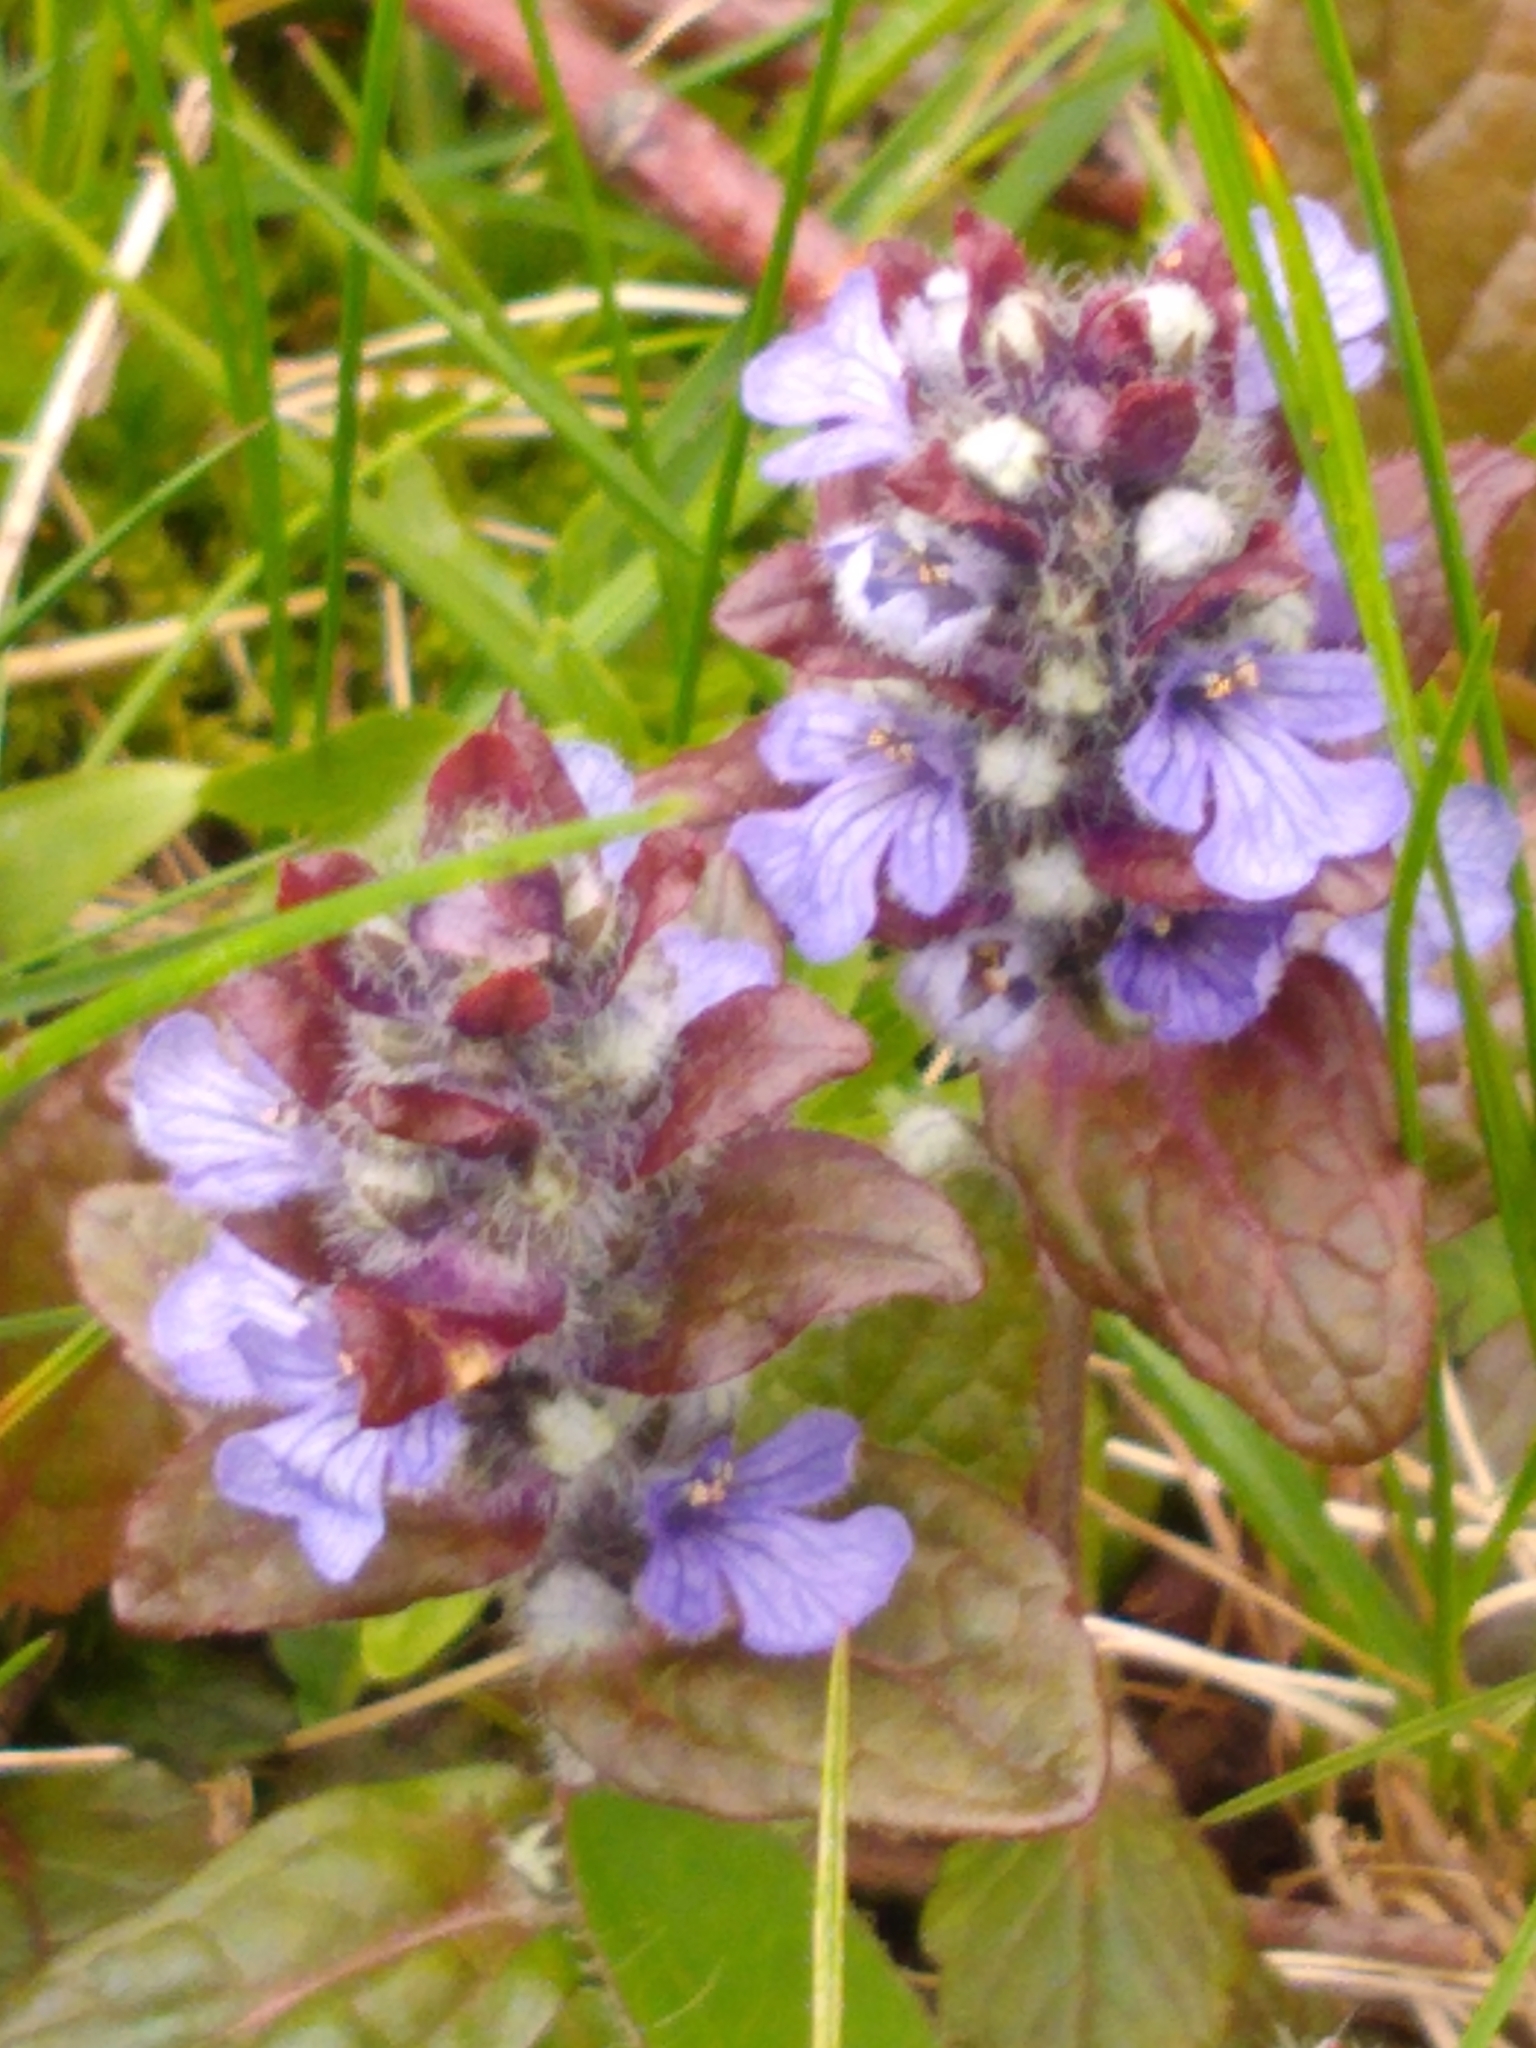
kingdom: Plantae
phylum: Tracheophyta
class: Magnoliopsida
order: Lamiales
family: Lamiaceae
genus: Ajuga
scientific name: Ajuga reptans
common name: Bugle
